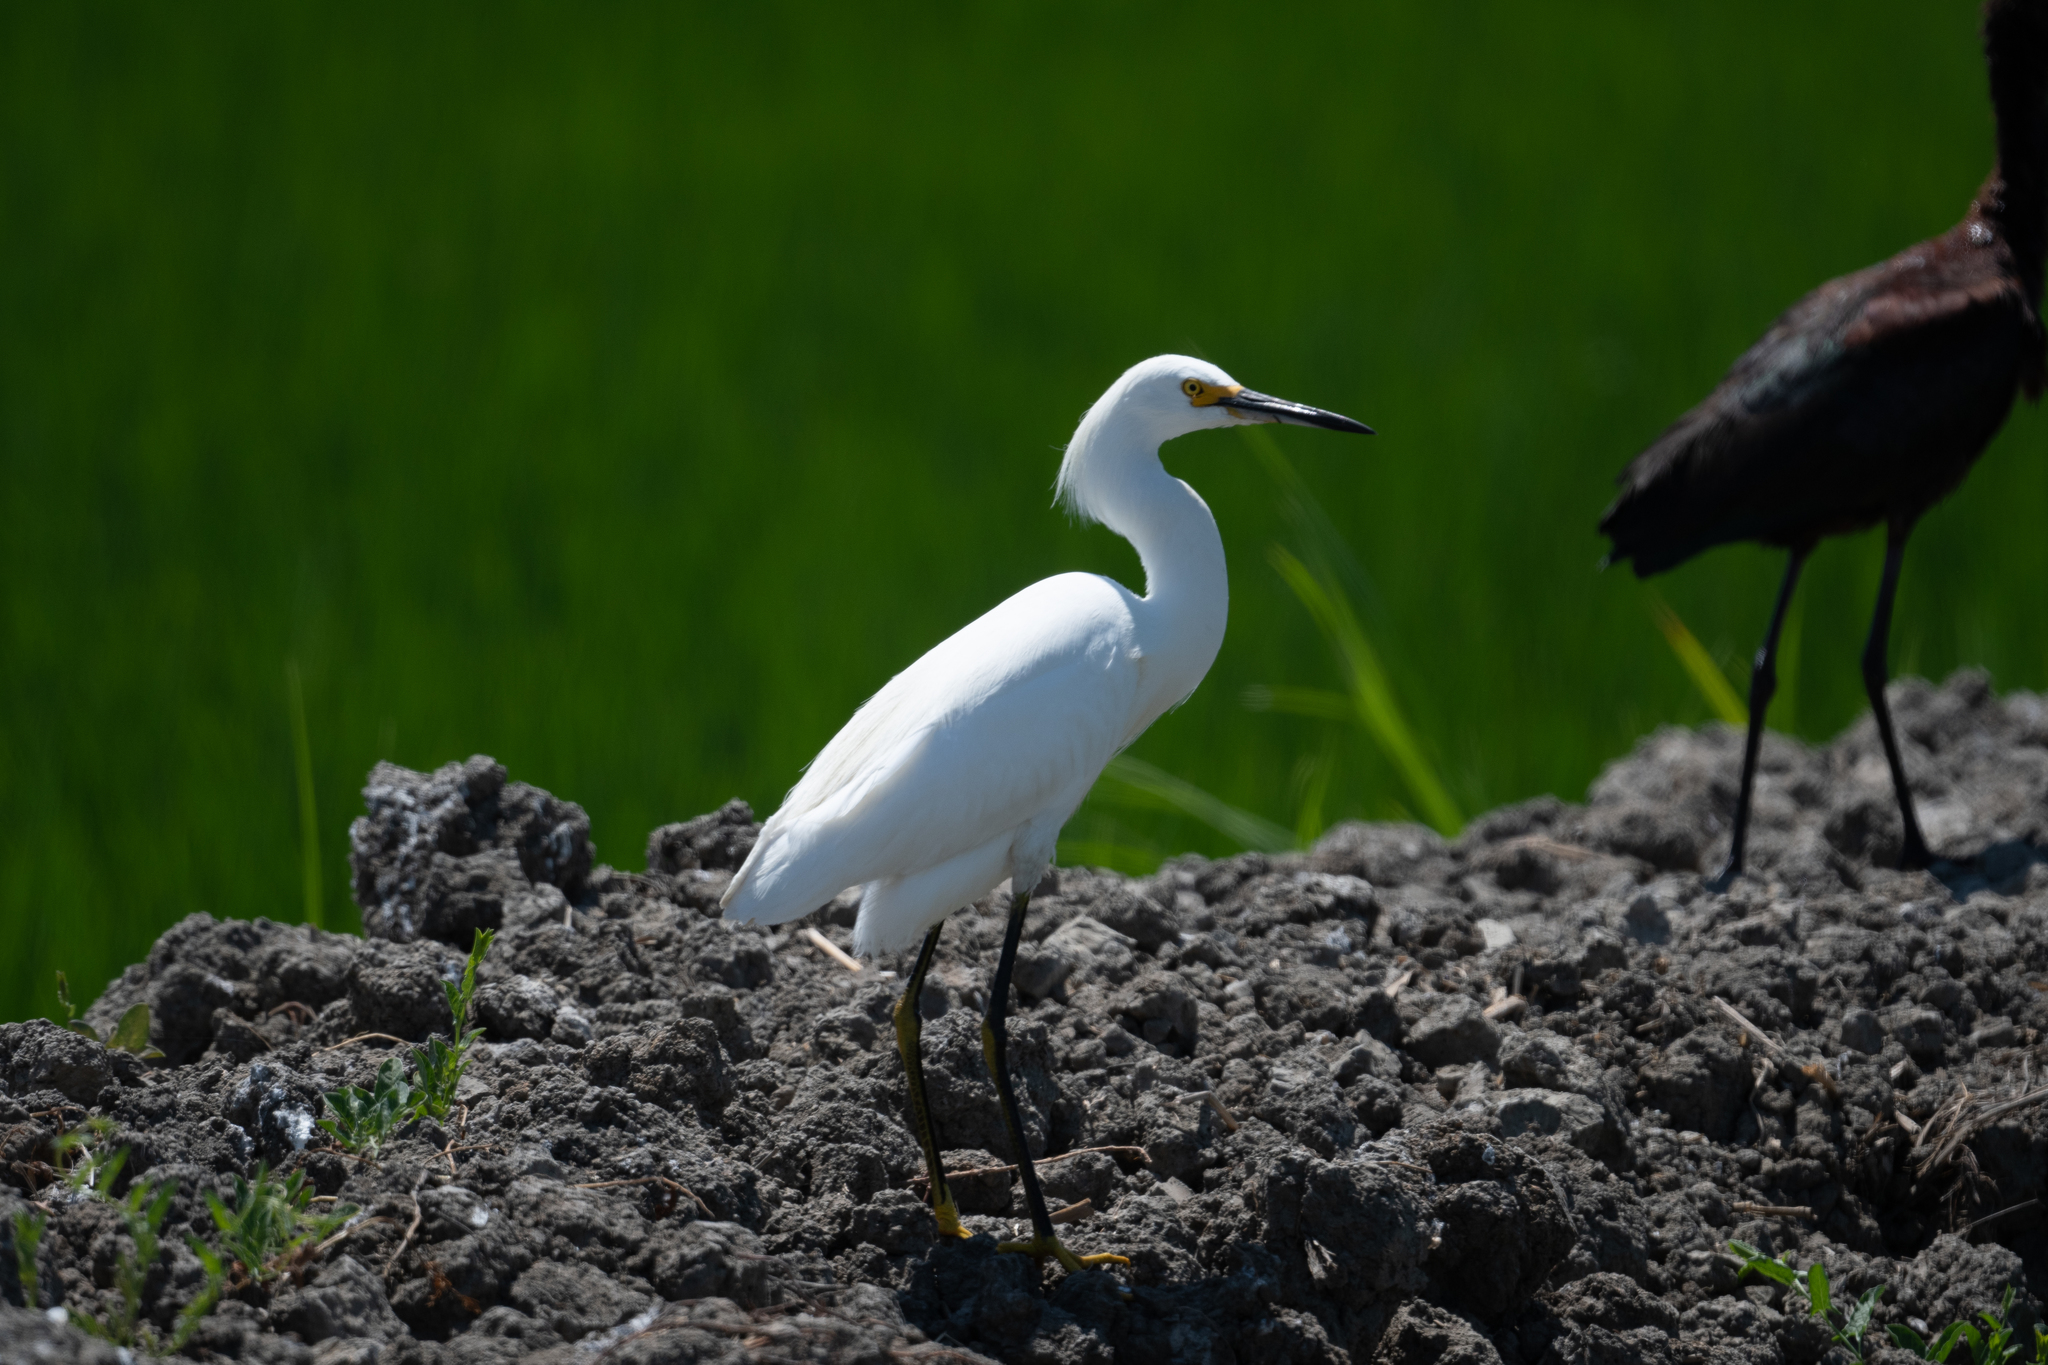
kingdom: Animalia
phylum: Chordata
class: Aves
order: Pelecaniformes
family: Ardeidae
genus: Egretta
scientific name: Egretta thula
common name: Snowy egret
